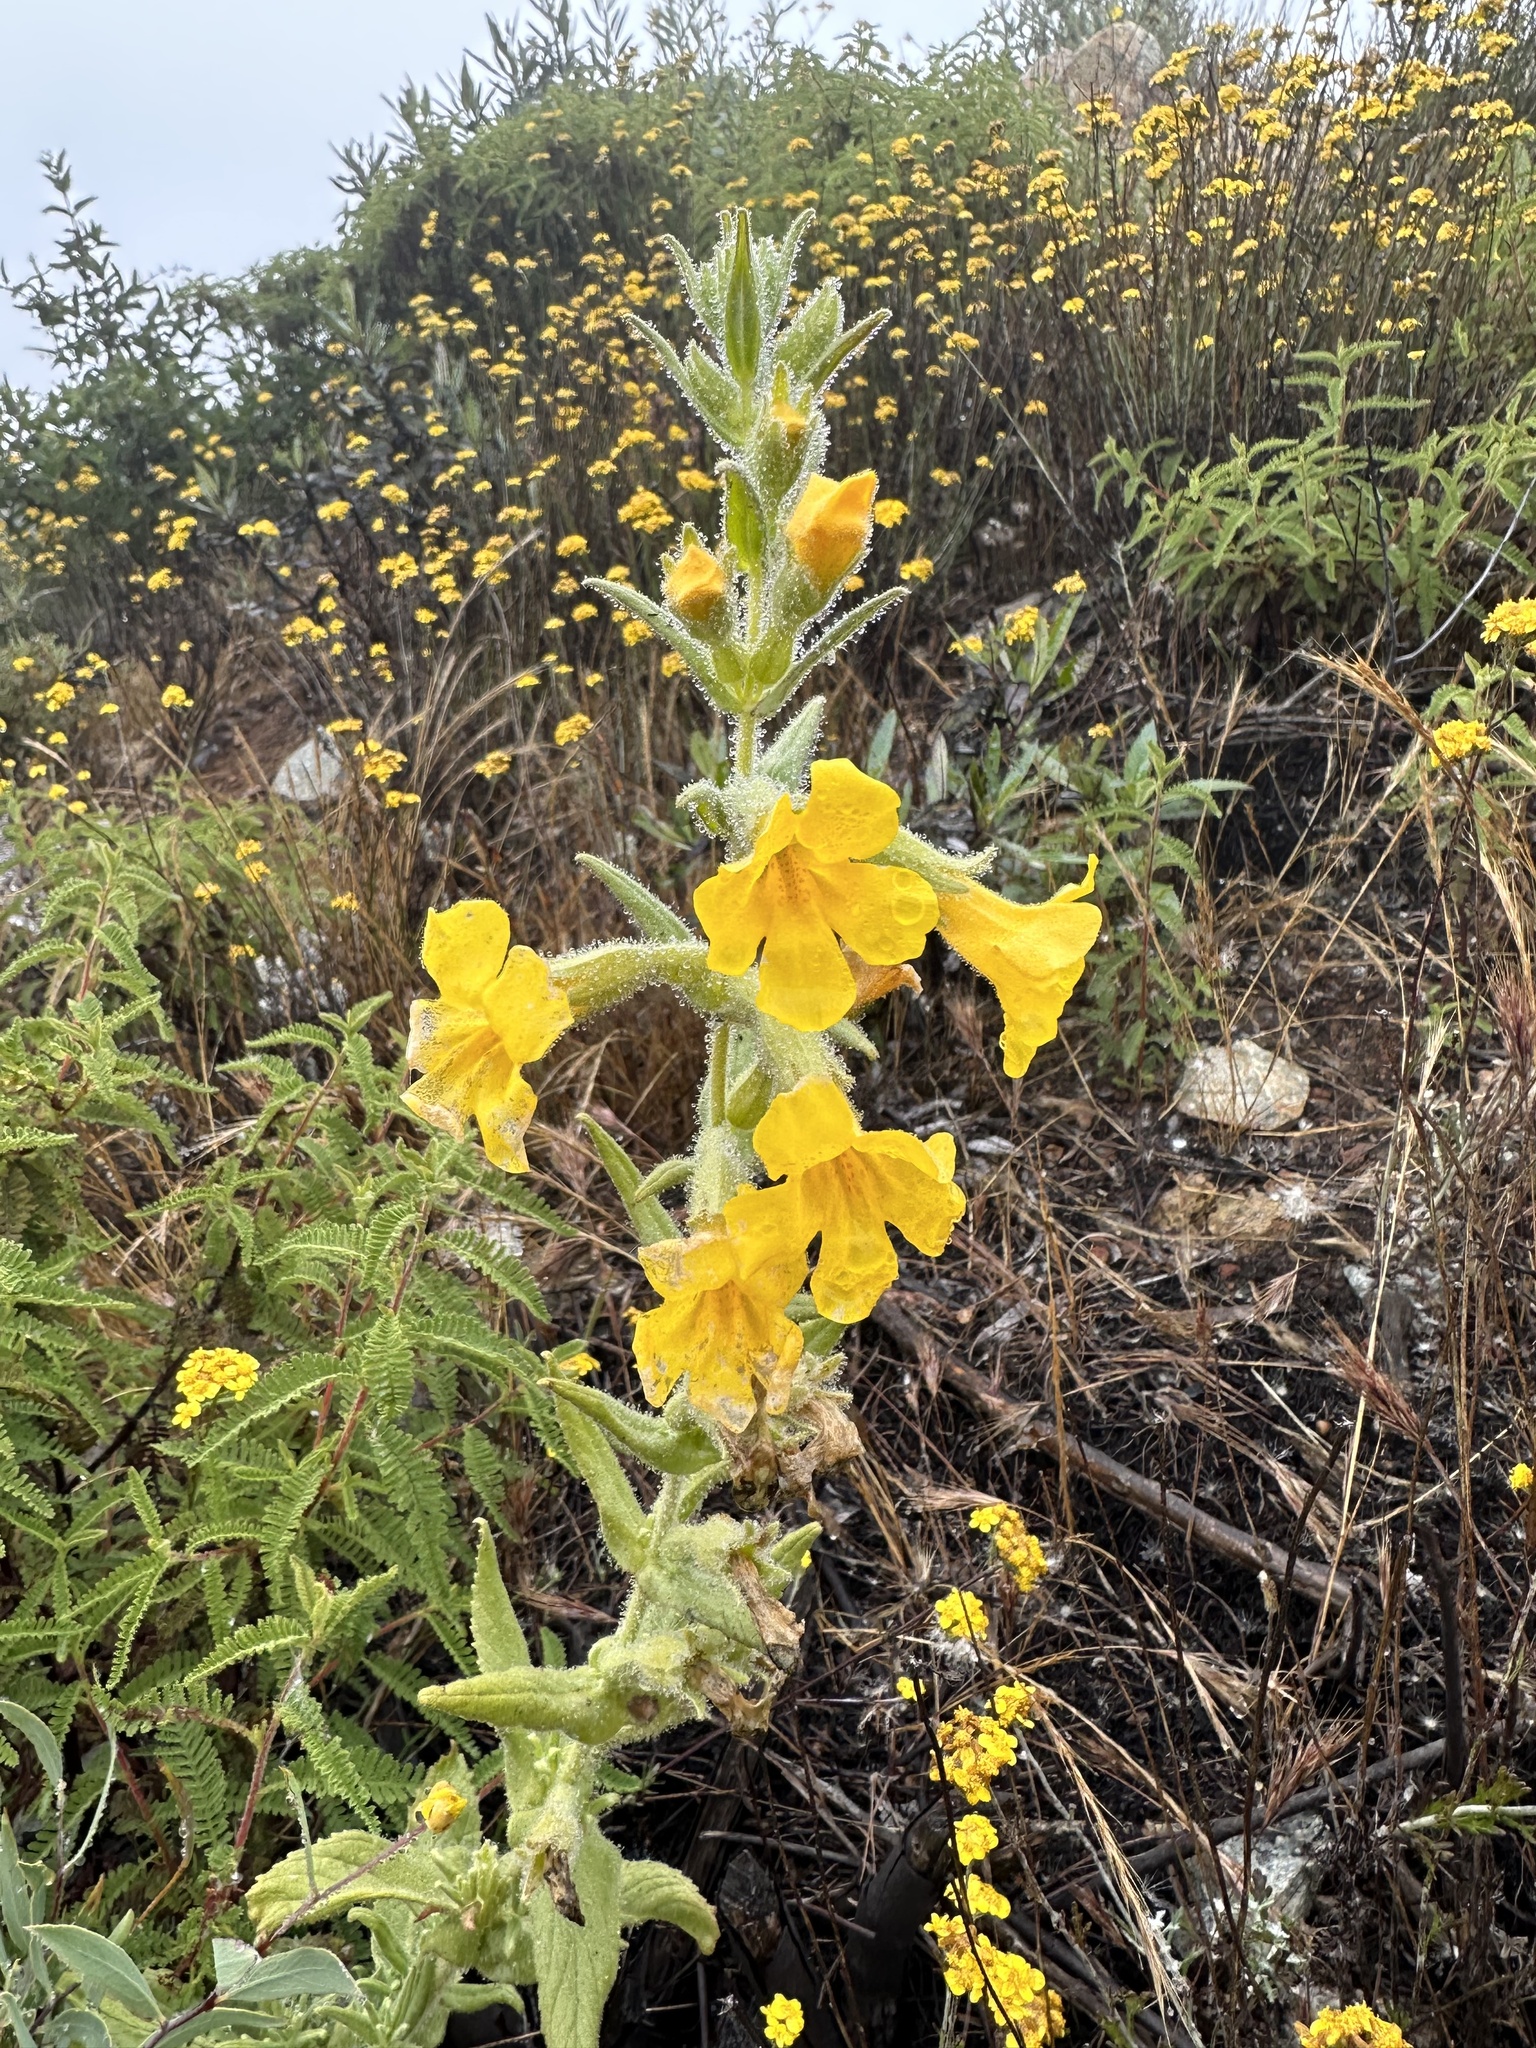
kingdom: Plantae
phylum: Tracheophyta
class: Magnoliopsida
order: Lamiales
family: Phrymaceae
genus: Diplacus
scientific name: Diplacus clevelandii
